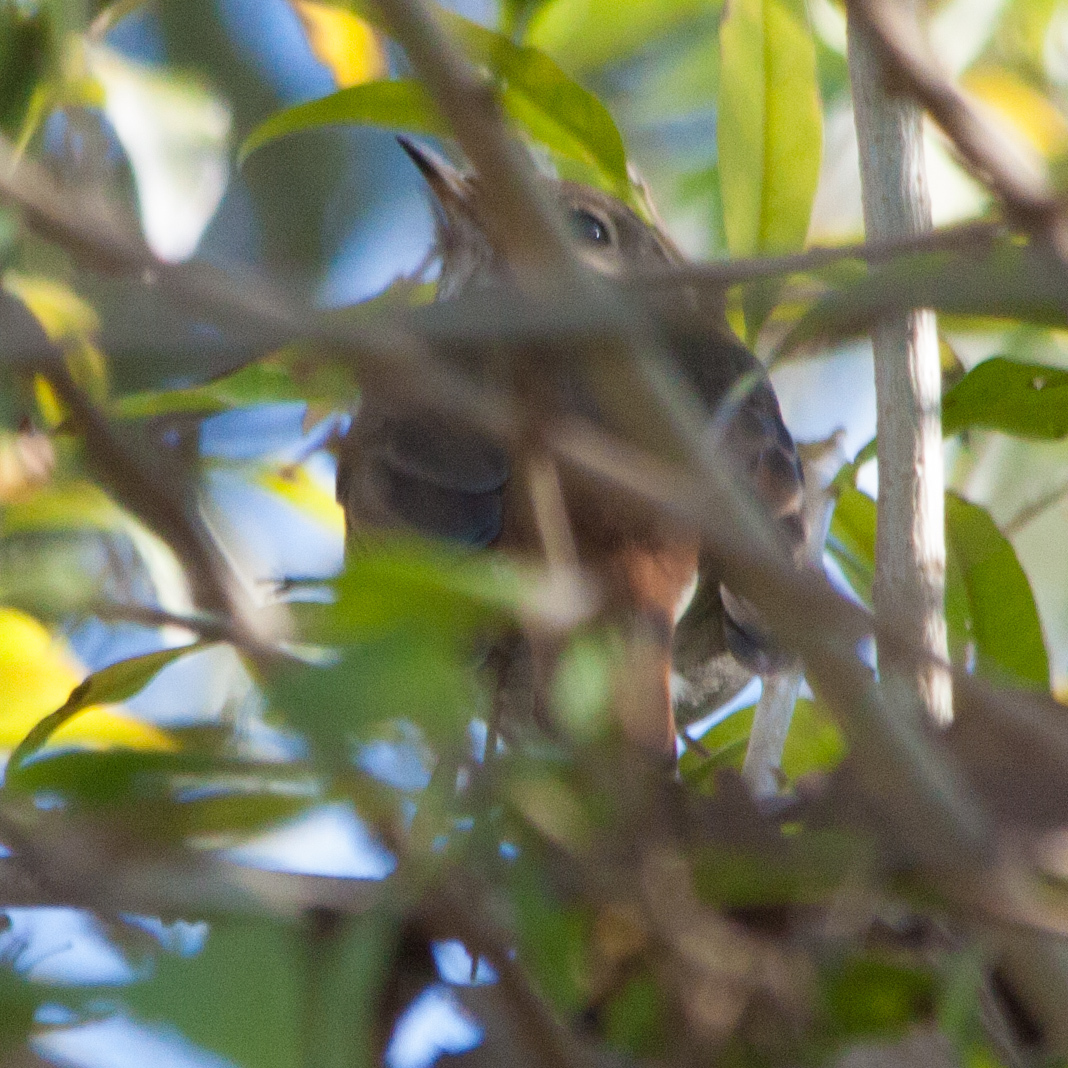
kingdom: Animalia
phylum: Chordata
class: Aves
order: Passeriformes
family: Turdidae
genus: Catharus
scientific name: Catharus guttatus
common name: Hermit thrush
